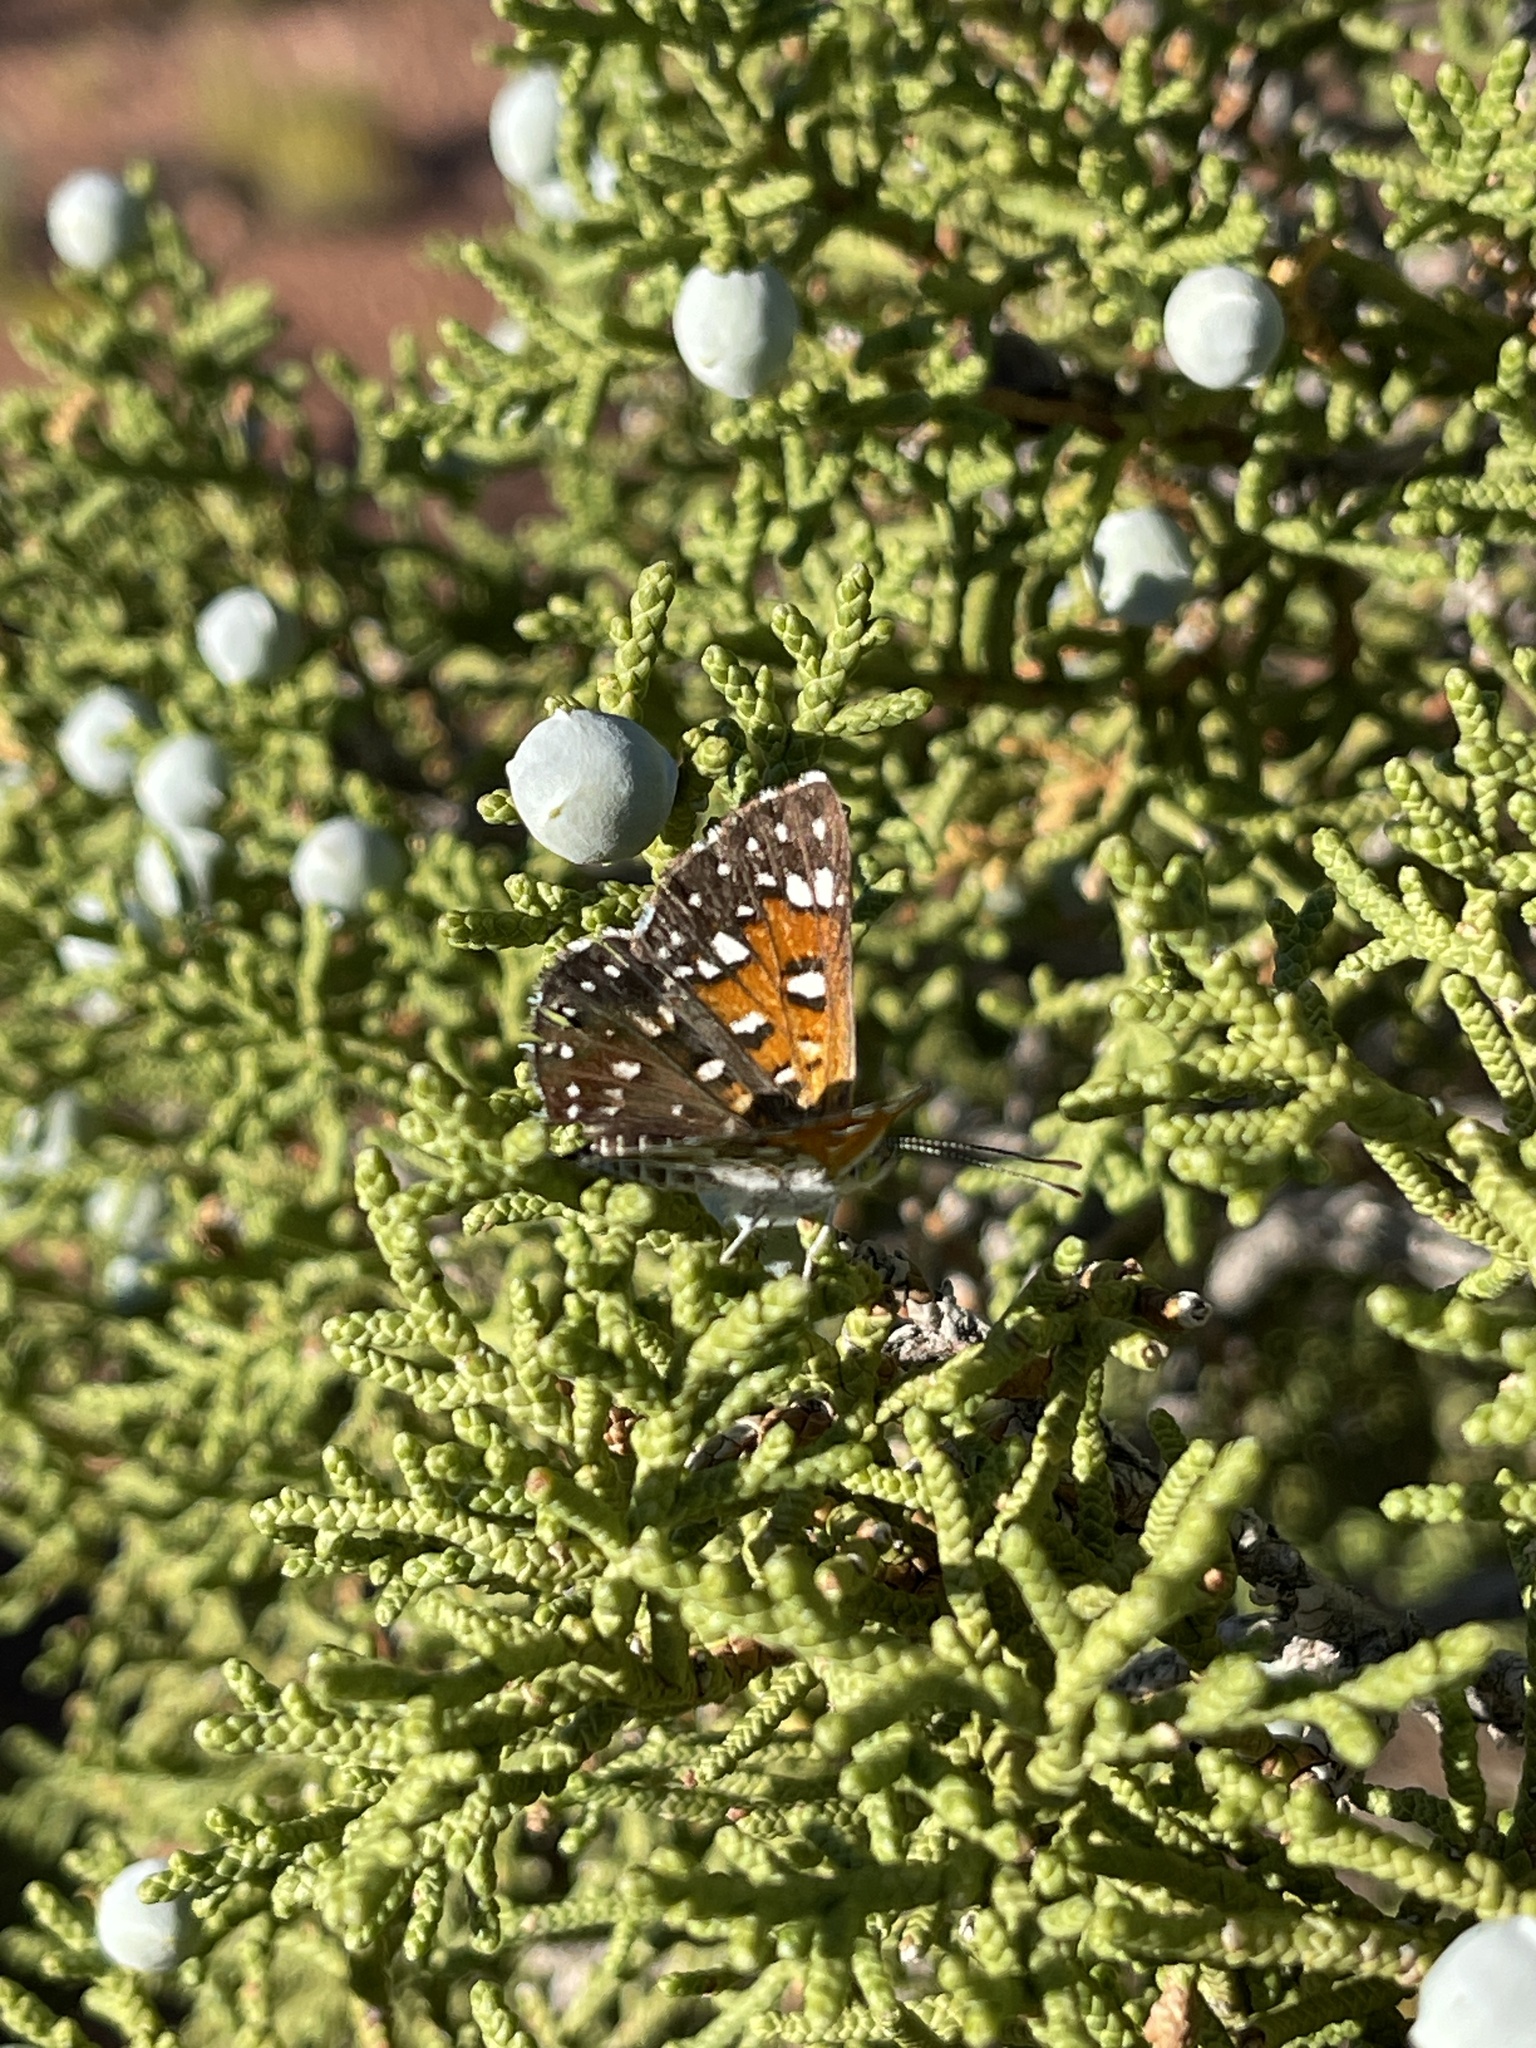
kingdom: Animalia
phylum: Arthropoda
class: Insecta
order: Lepidoptera
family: Riodinidae
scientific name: Riodinidae
